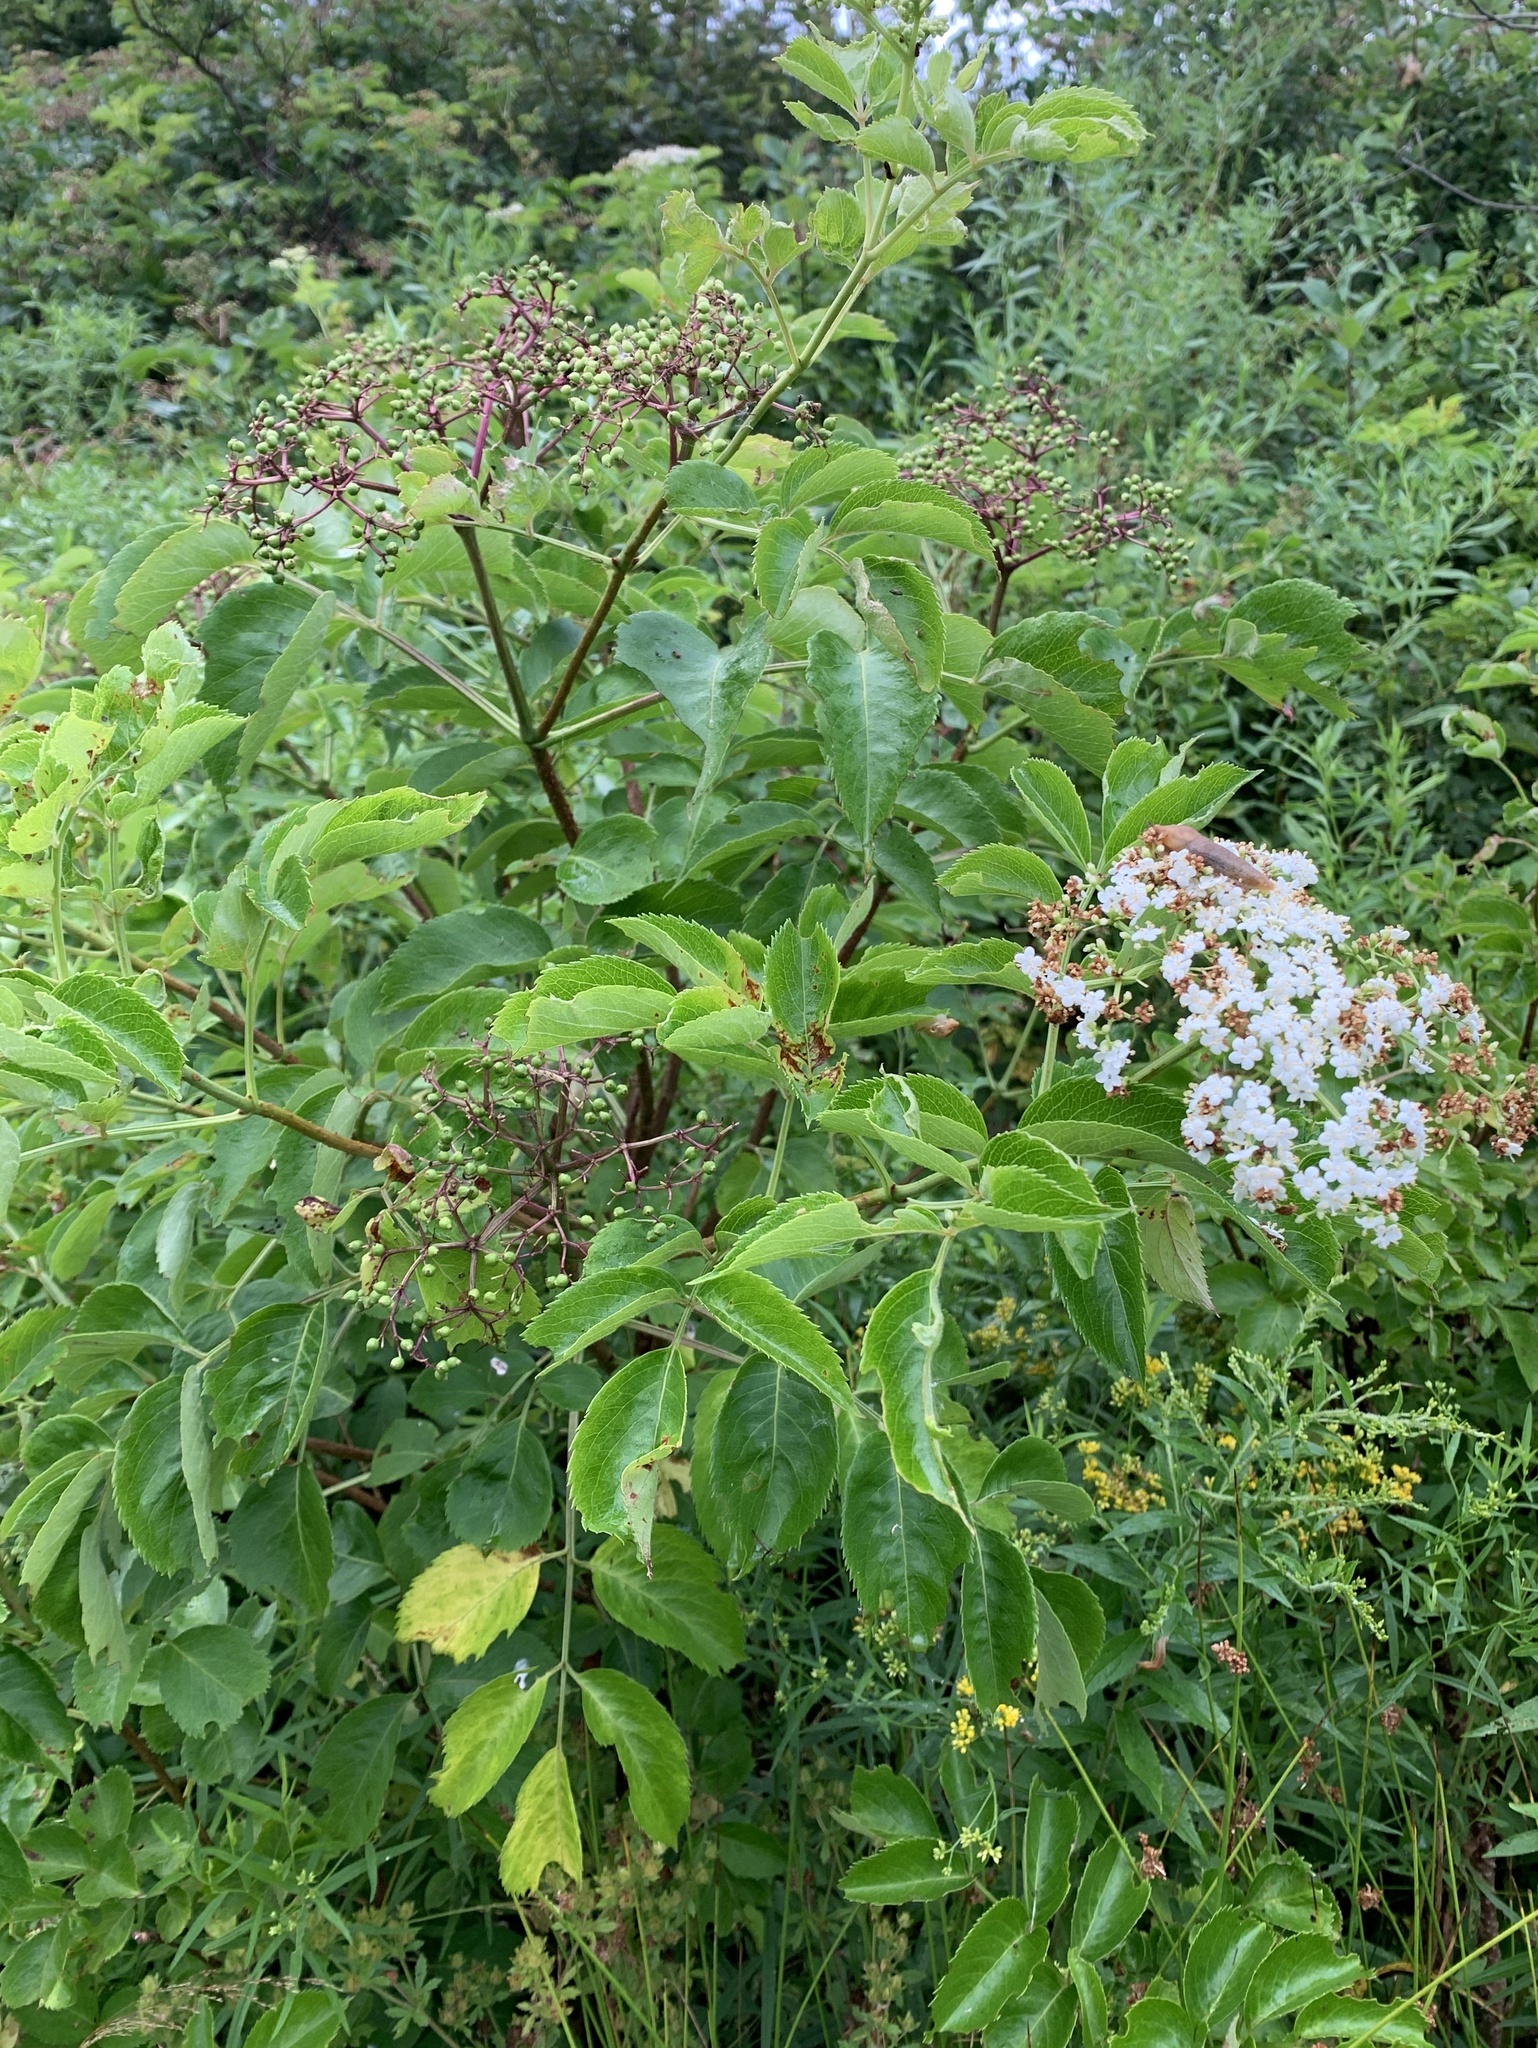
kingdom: Plantae
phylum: Tracheophyta
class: Magnoliopsida
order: Dipsacales
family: Viburnaceae
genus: Sambucus
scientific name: Sambucus canadensis
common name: American elder
